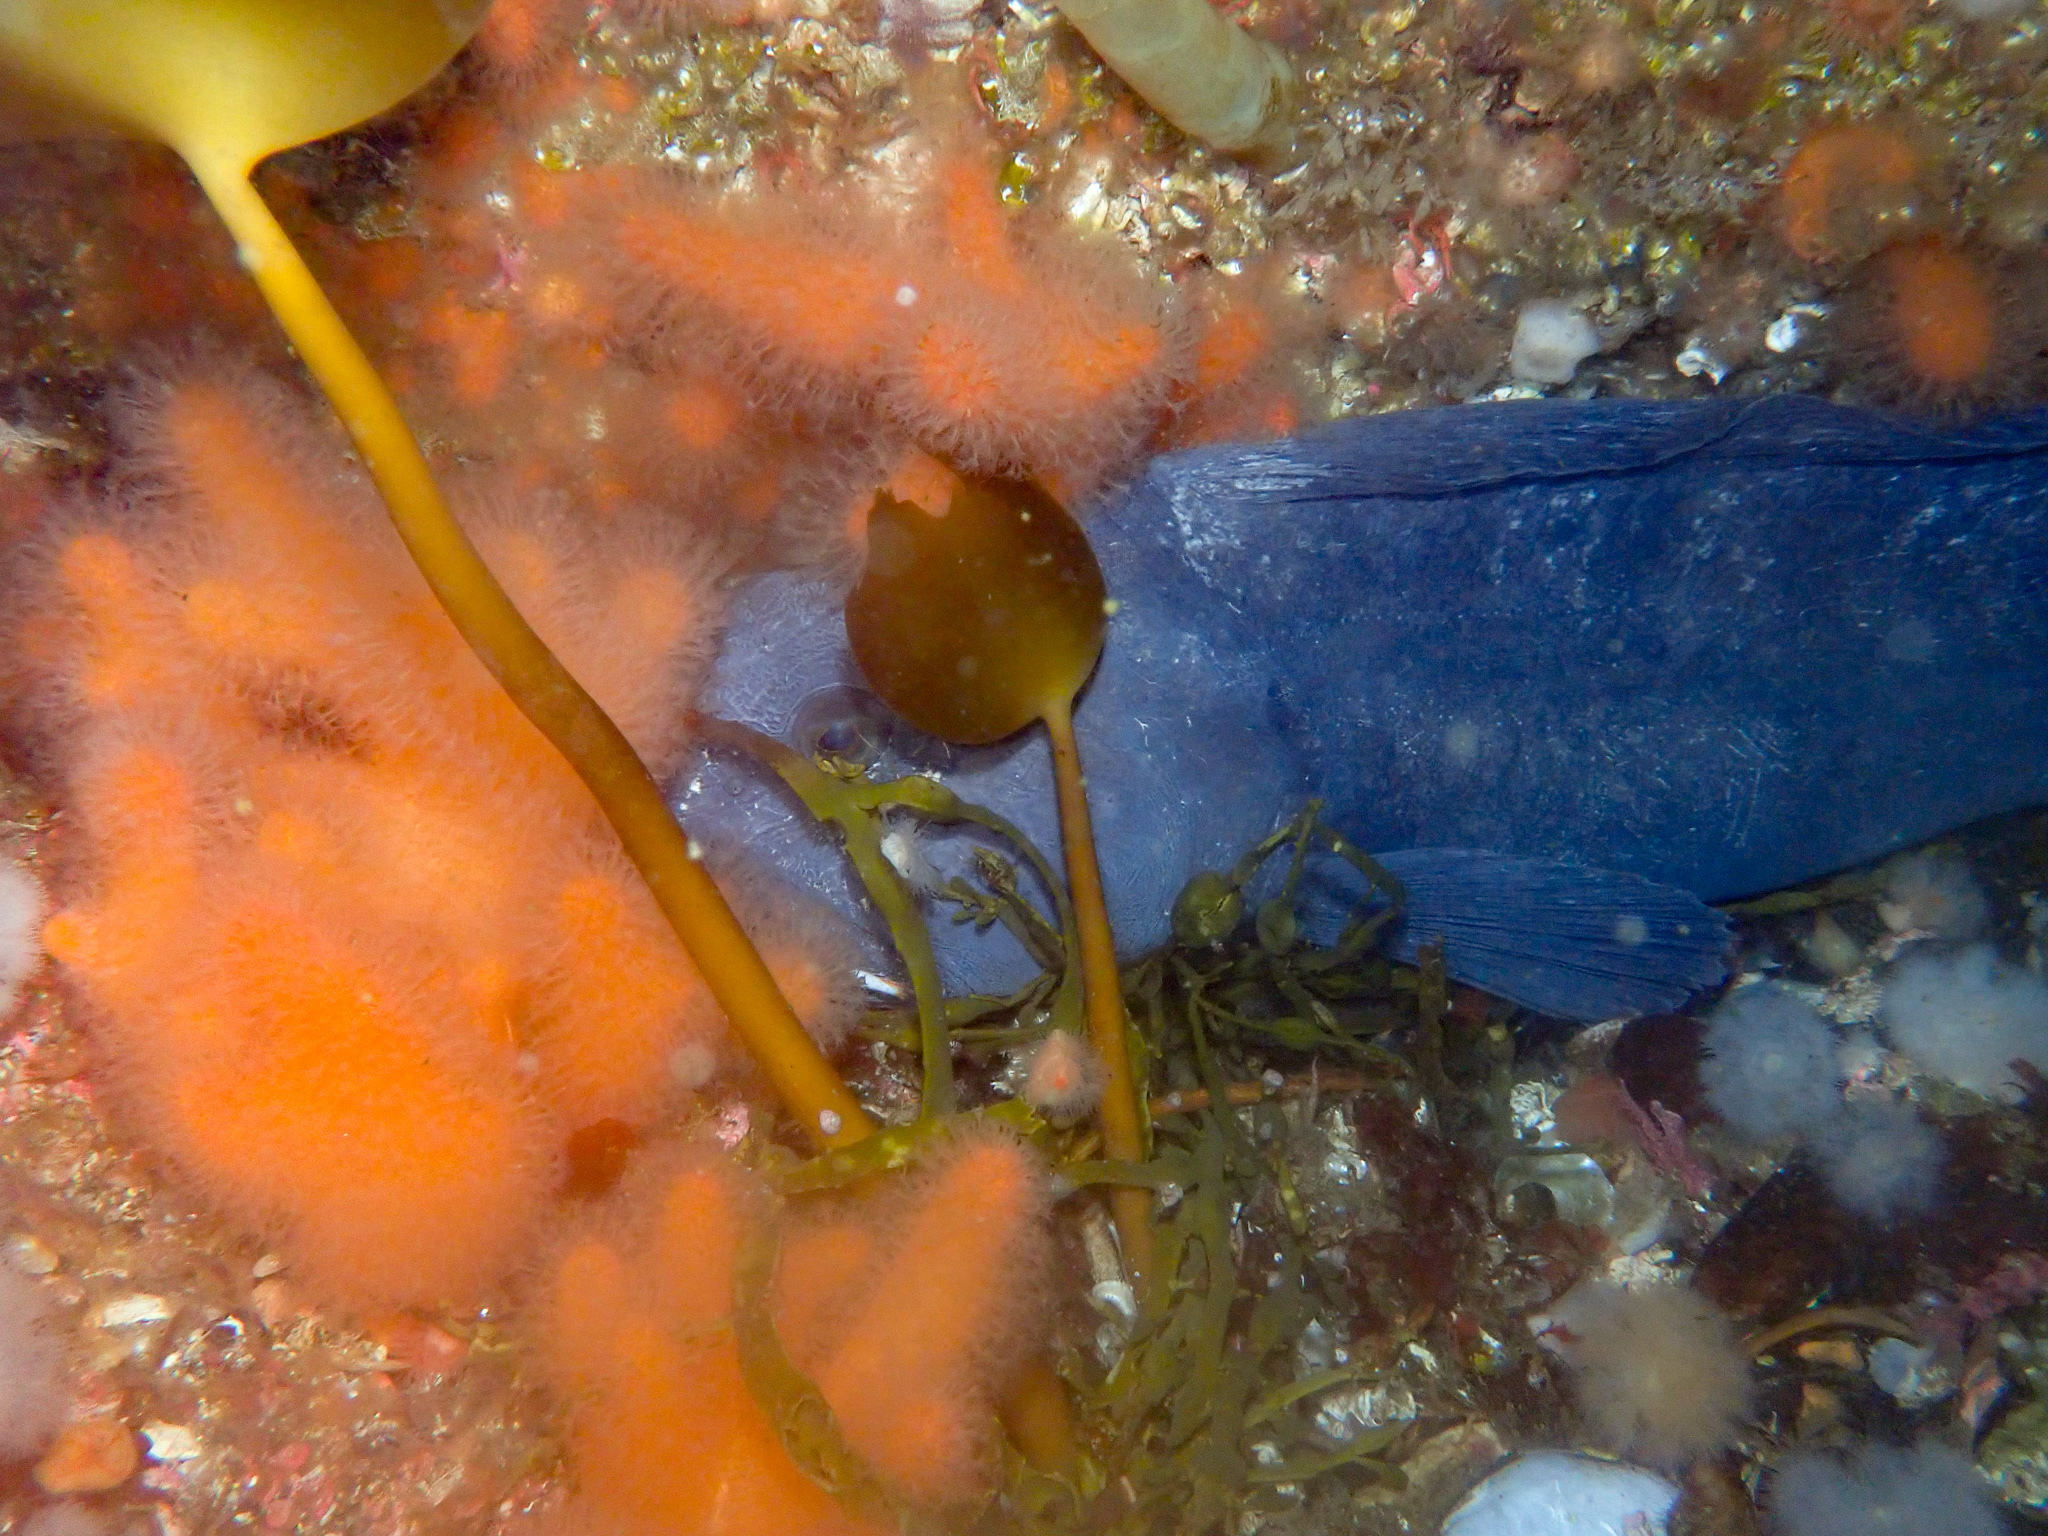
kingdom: Animalia
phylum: Chordata
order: Perciformes
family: Anarhichadidae
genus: Anarhichas
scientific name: Anarhichas lupus
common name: Wolf-fish
